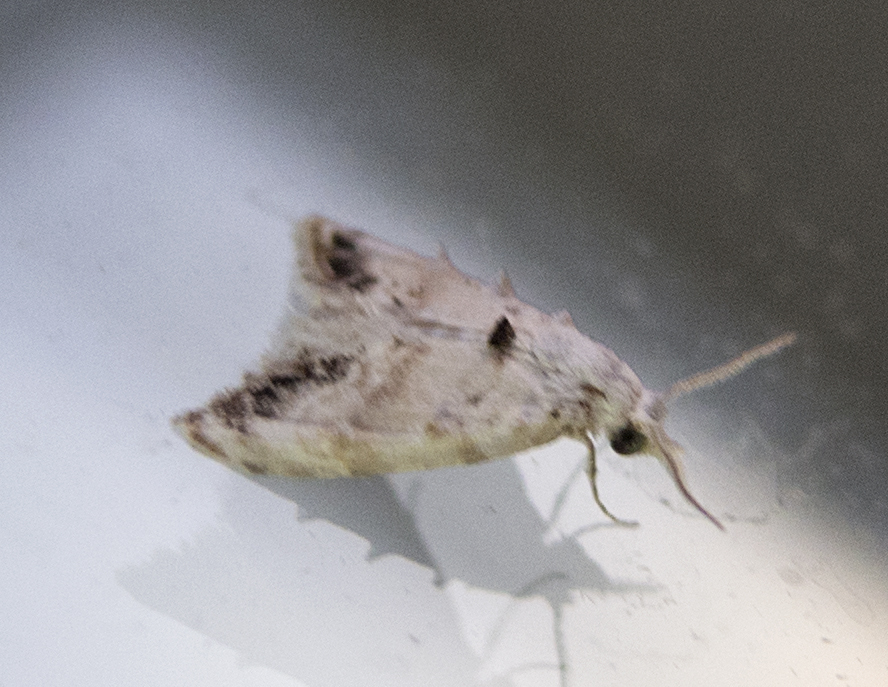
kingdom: Animalia
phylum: Arthropoda
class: Insecta
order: Lepidoptera
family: Nolidae
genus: Nola
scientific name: Nola chlamitulalis
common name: Jersey black arches
